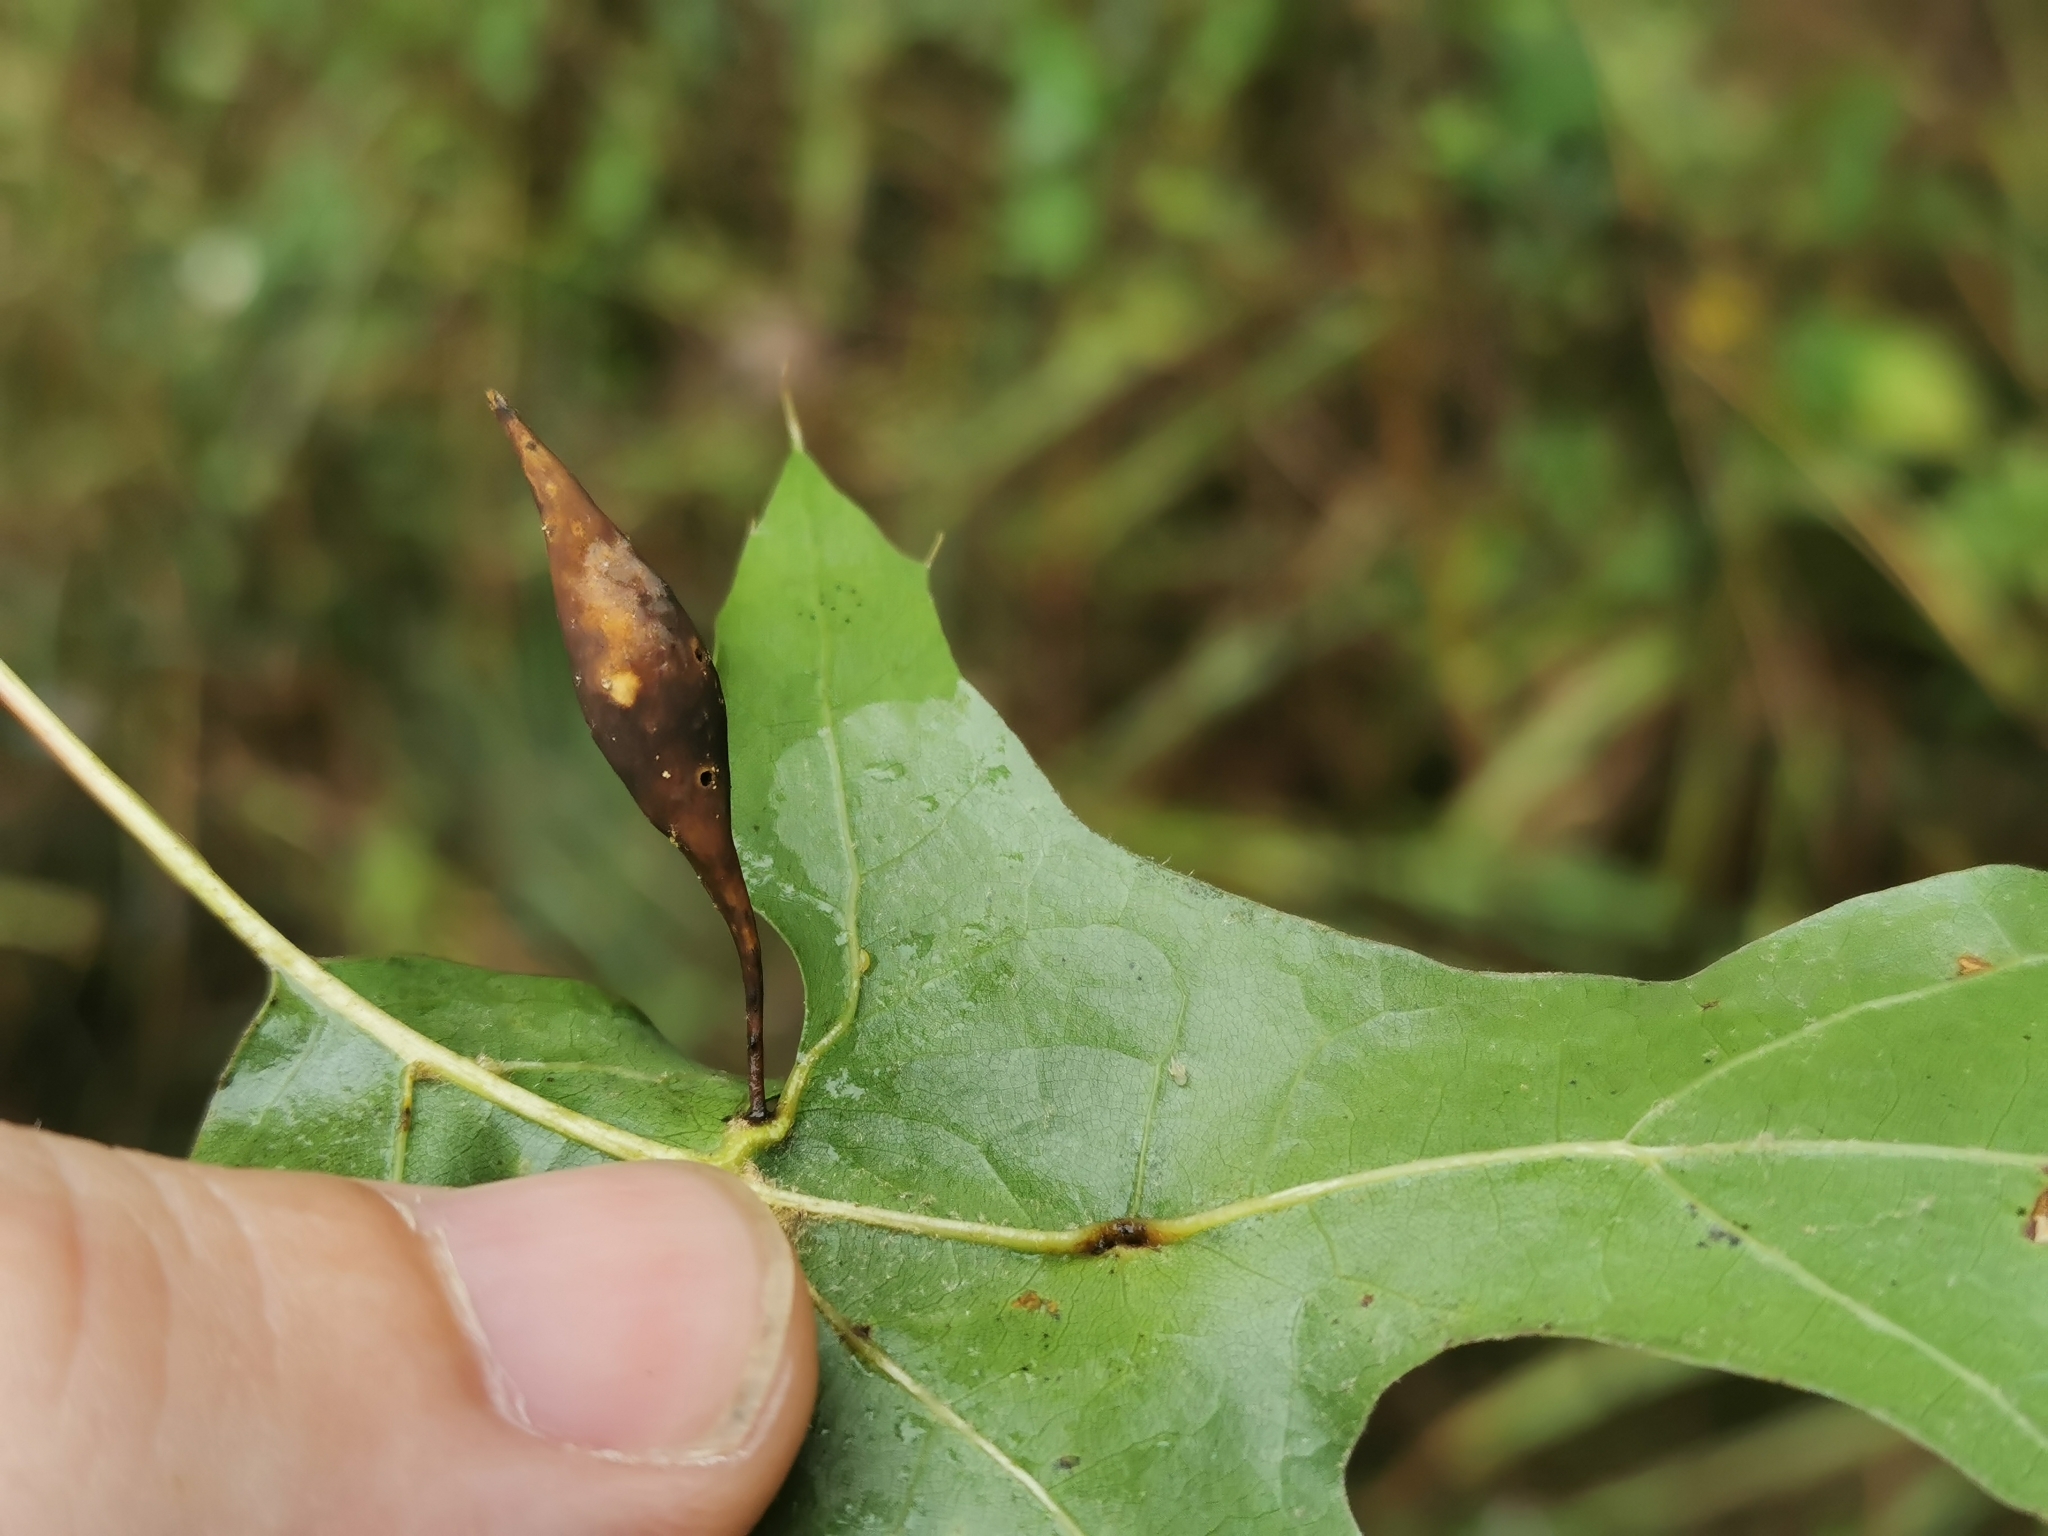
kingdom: Animalia
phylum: Arthropoda
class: Insecta
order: Hymenoptera
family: Cynipidae
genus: Amphibolips
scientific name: Amphibolips
